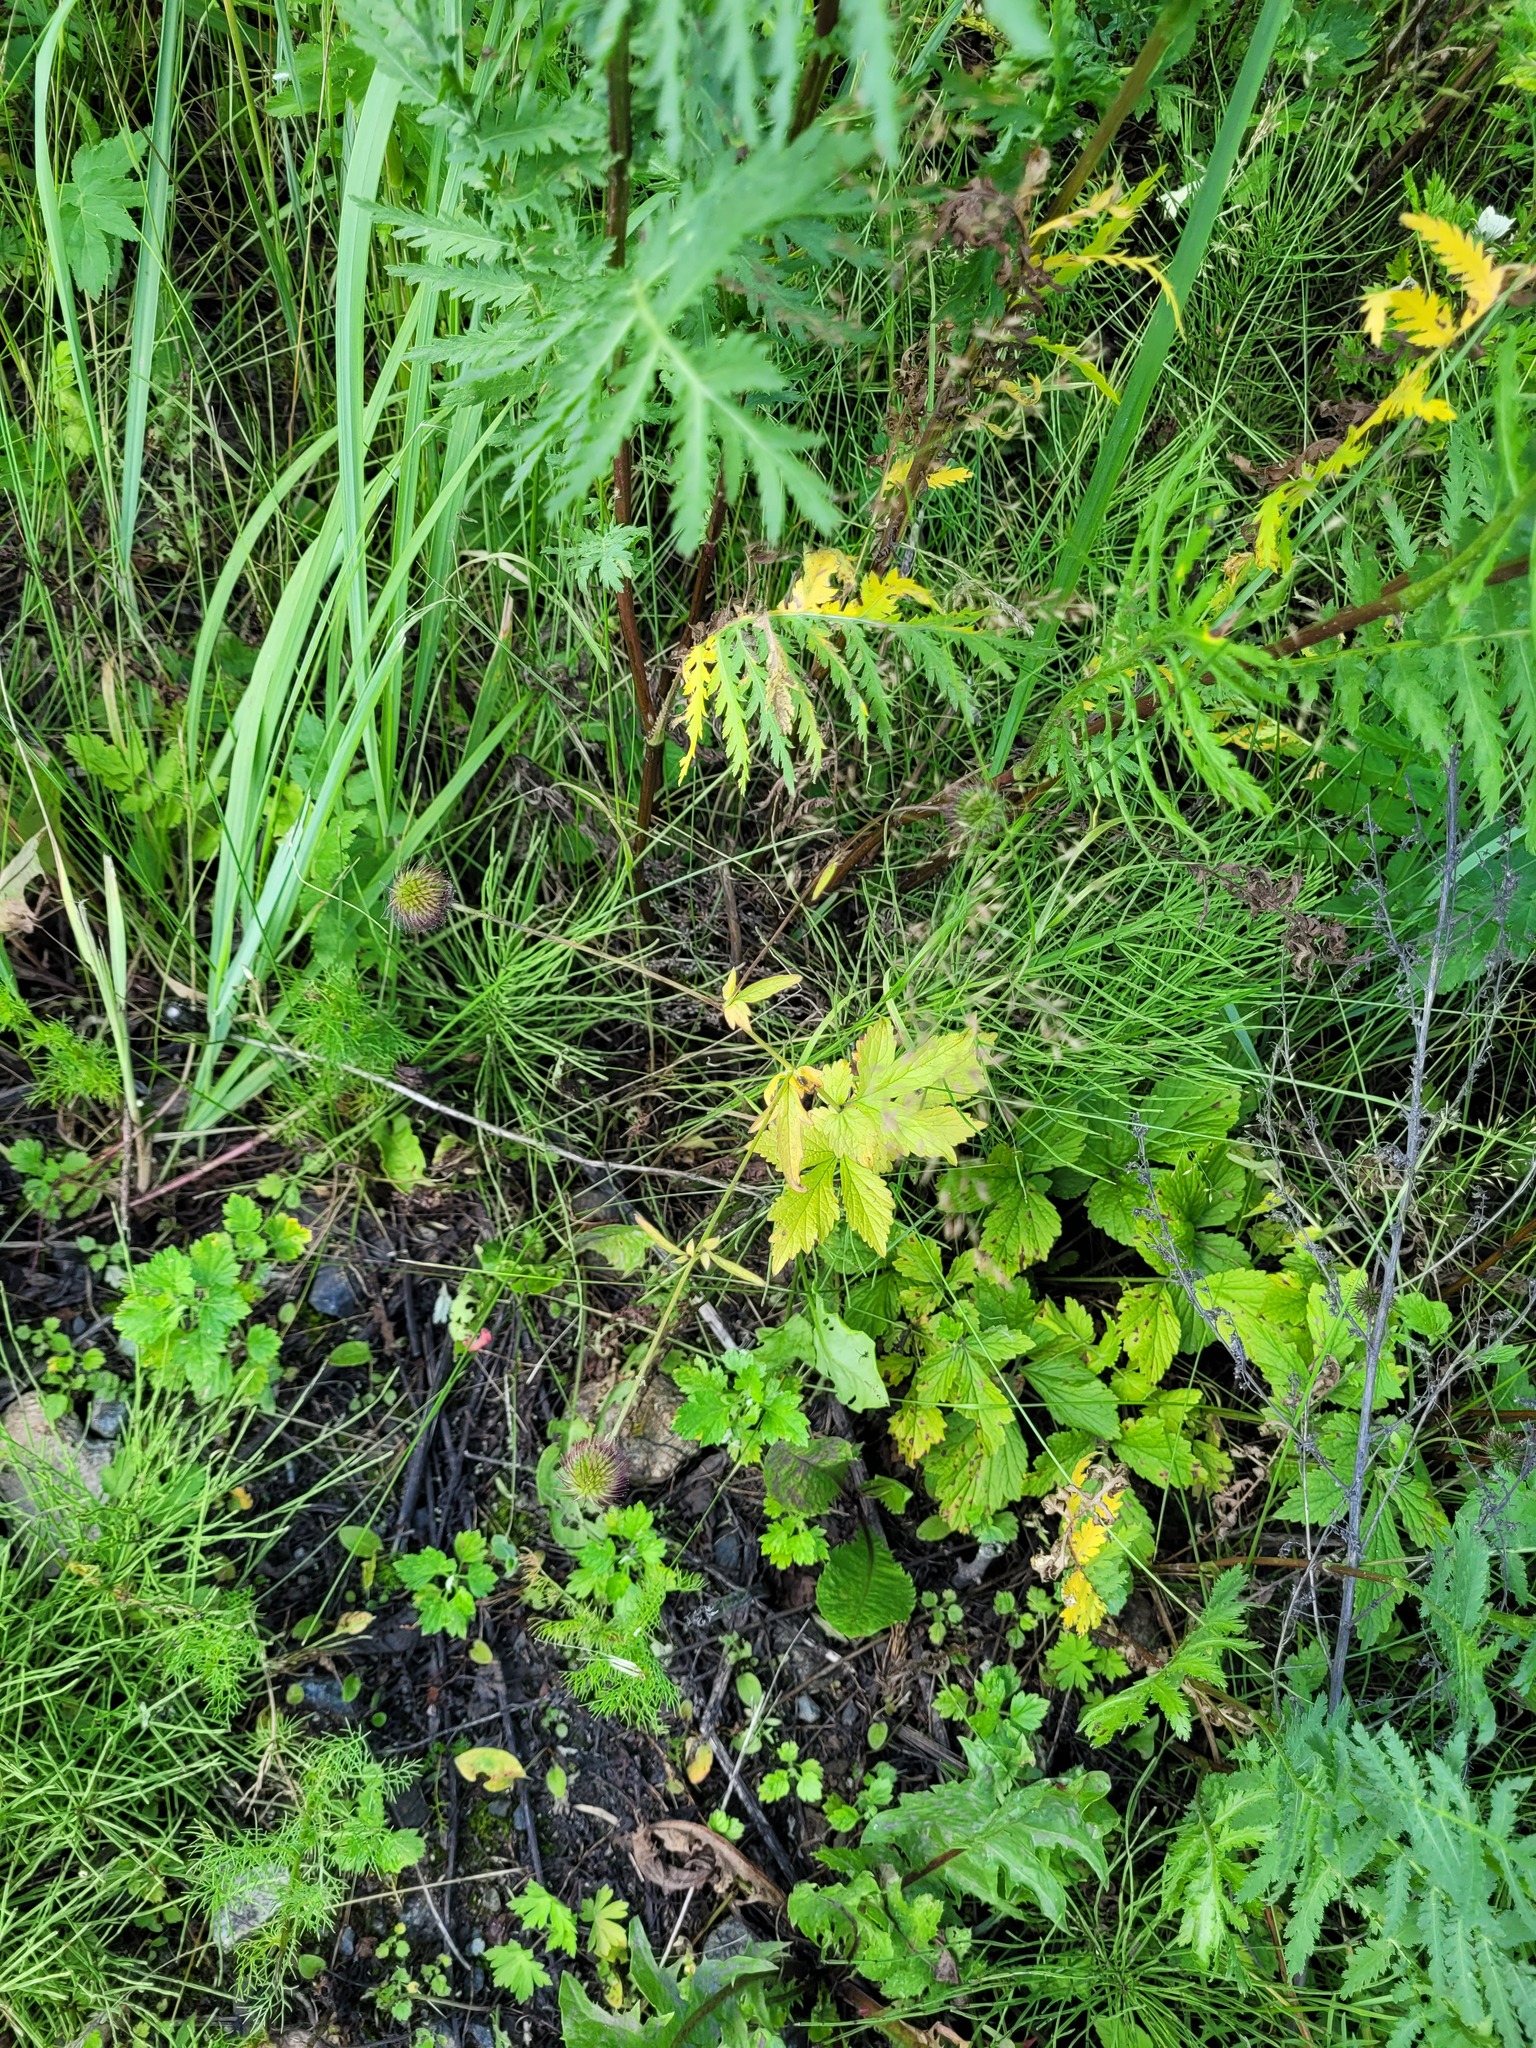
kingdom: Plantae
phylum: Tracheophyta
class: Magnoliopsida
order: Rosales
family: Rosaceae
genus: Geum
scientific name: Geum urbanum
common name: Wood avens
